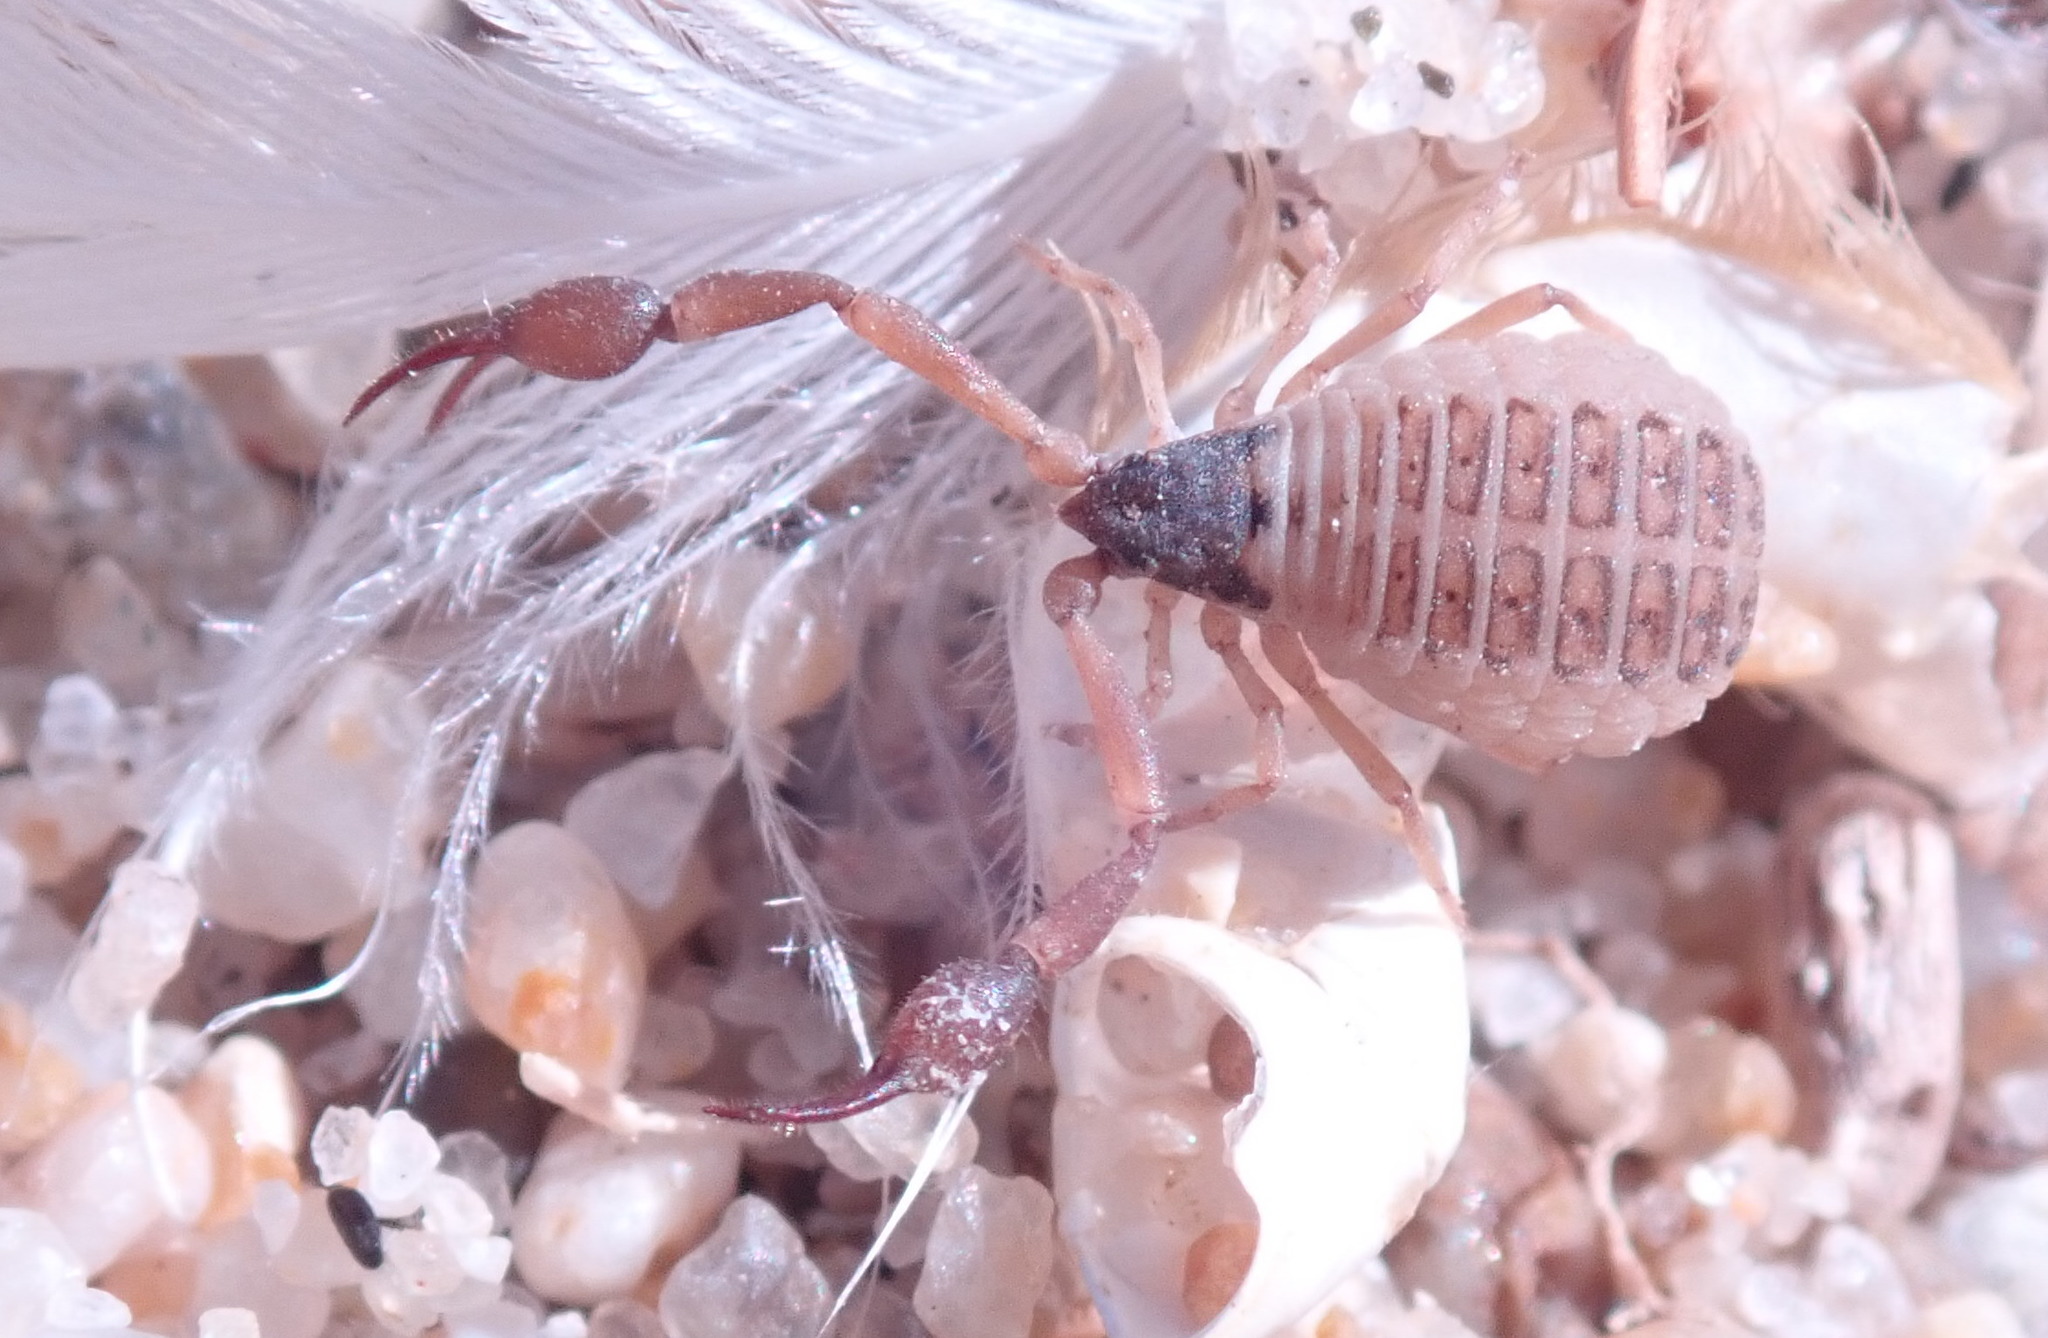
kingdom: Animalia
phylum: Arthropoda
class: Arachnida
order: Pseudoscorpiones
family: Garypidae
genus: Anchigarypus
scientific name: Anchigarypus californicus
